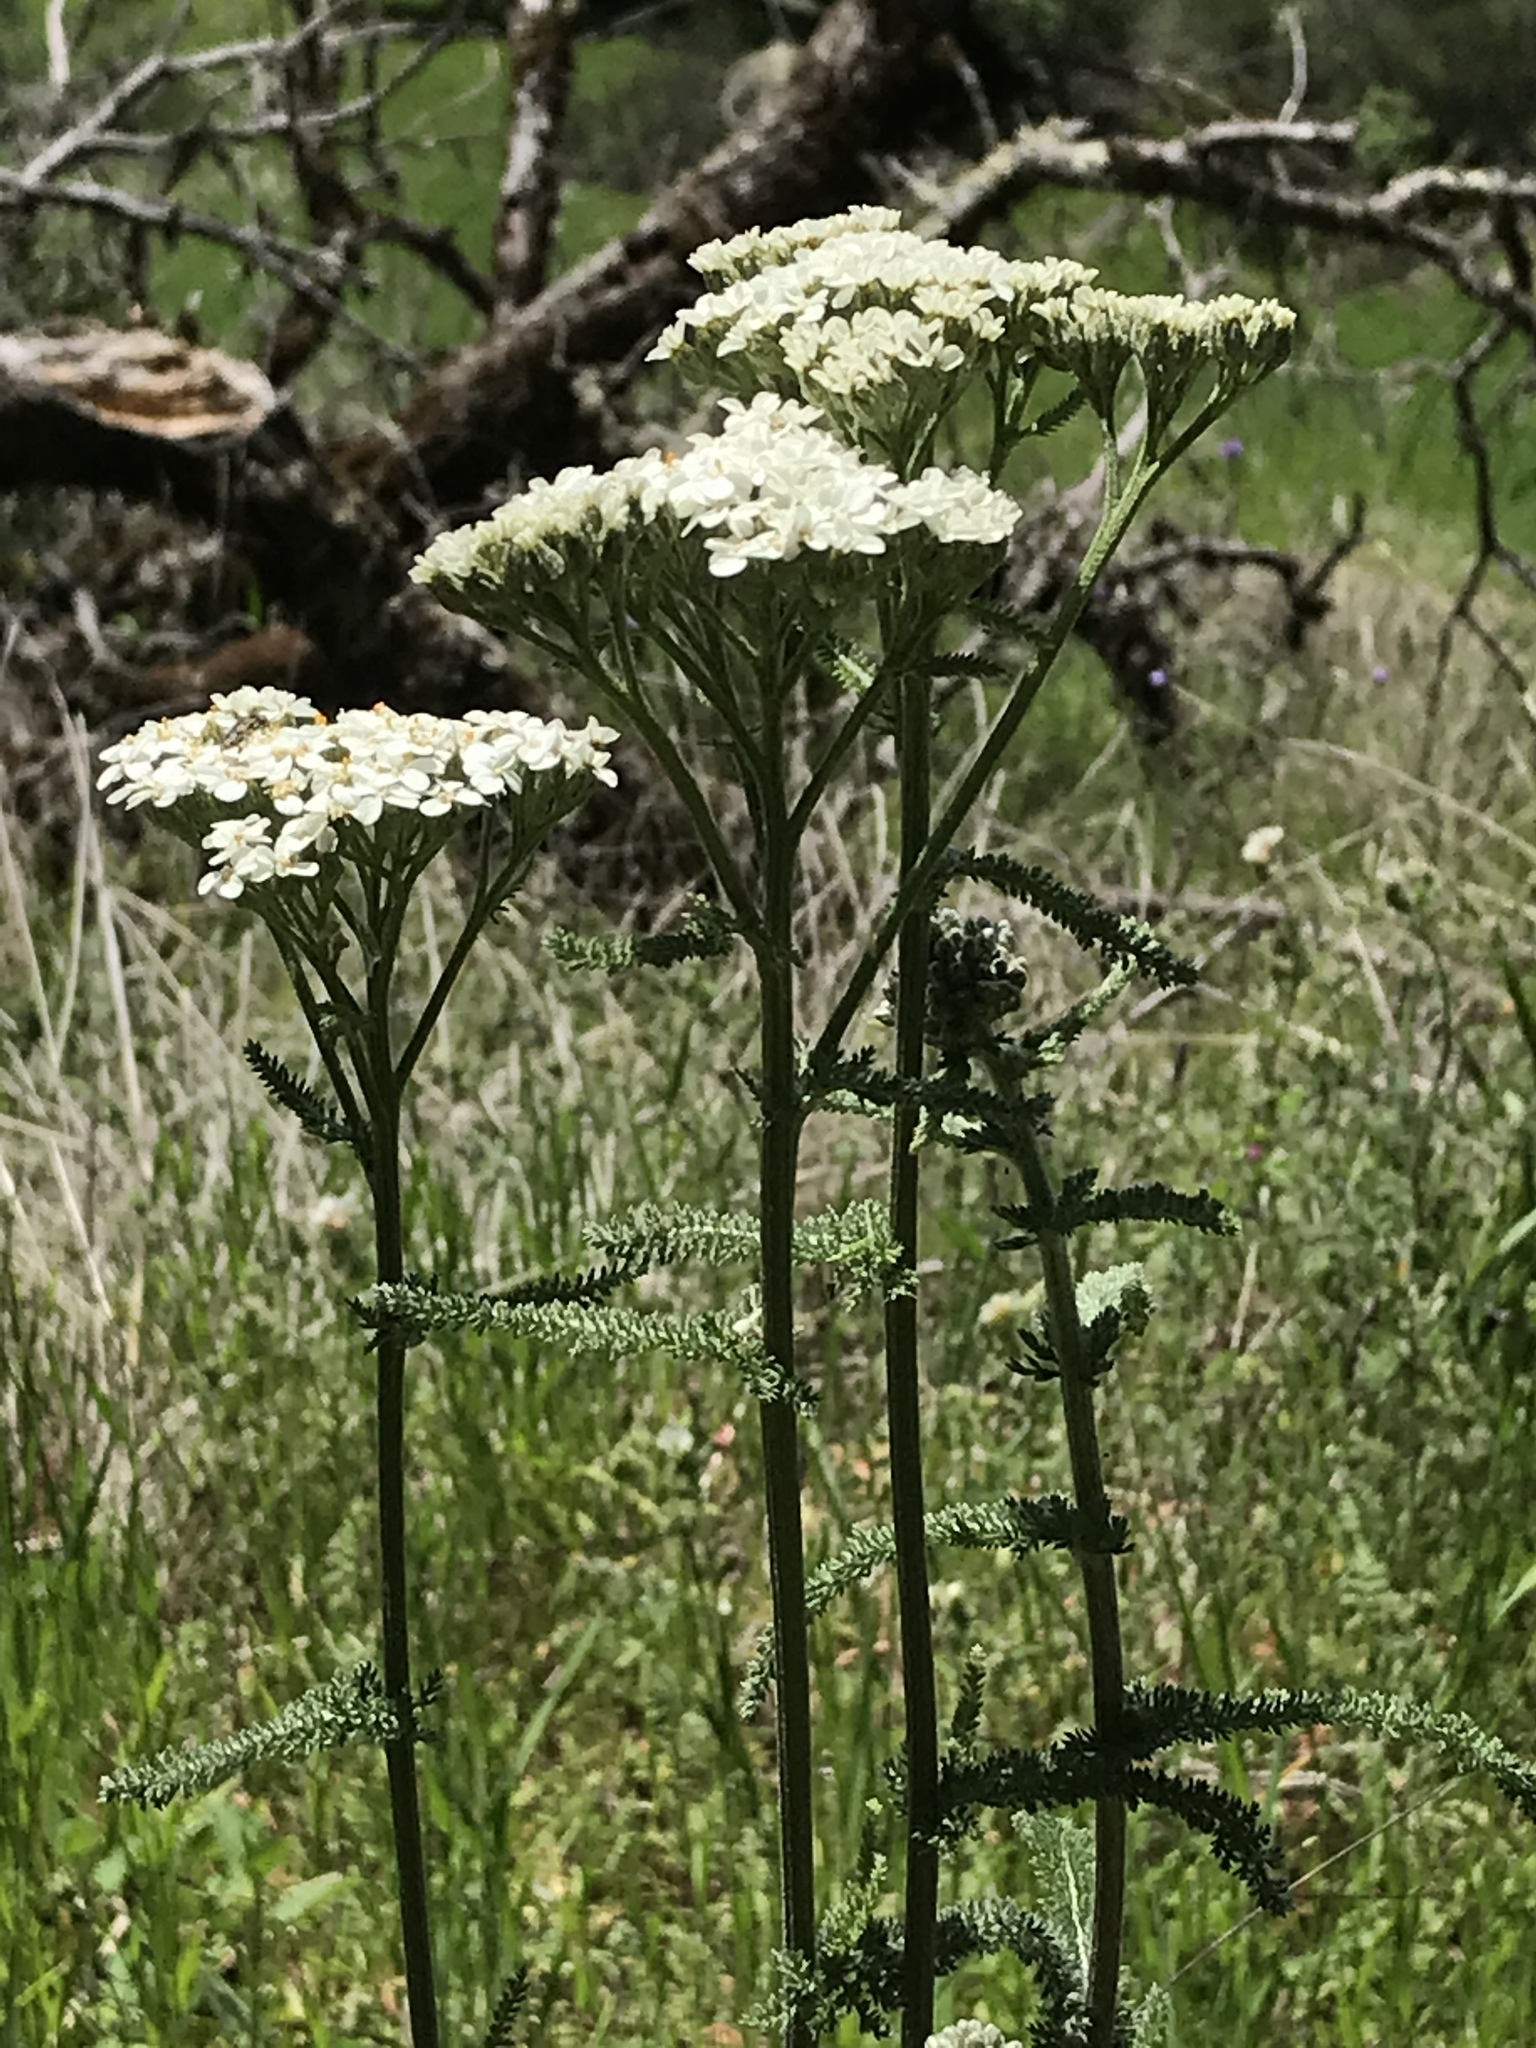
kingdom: Plantae
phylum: Tracheophyta
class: Magnoliopsida
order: Asterales
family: Asteraceae
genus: Achillea
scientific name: Achillea millefolium
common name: Yarrow
